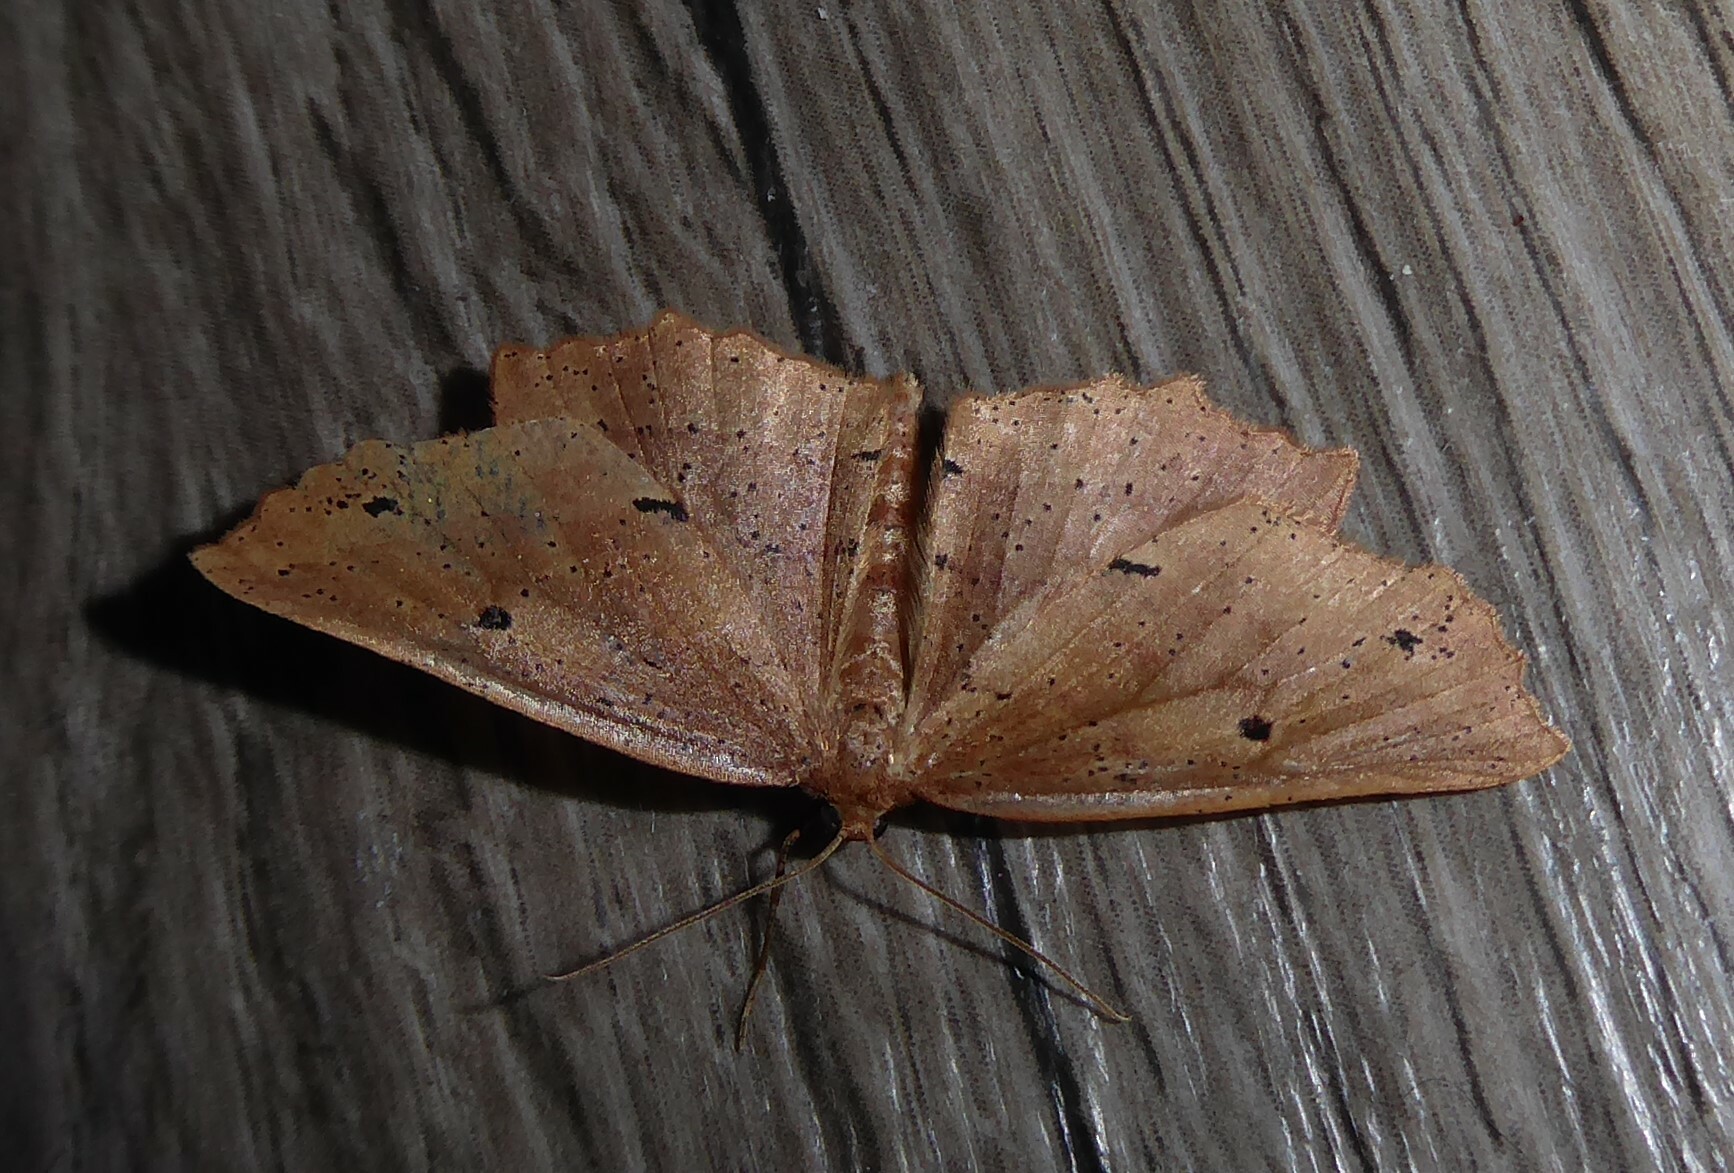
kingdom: Animalia
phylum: Arthropoda
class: Insecta
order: Lepidoptera
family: Geometridae
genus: Xyridacma
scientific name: Xyridacma veronicae
